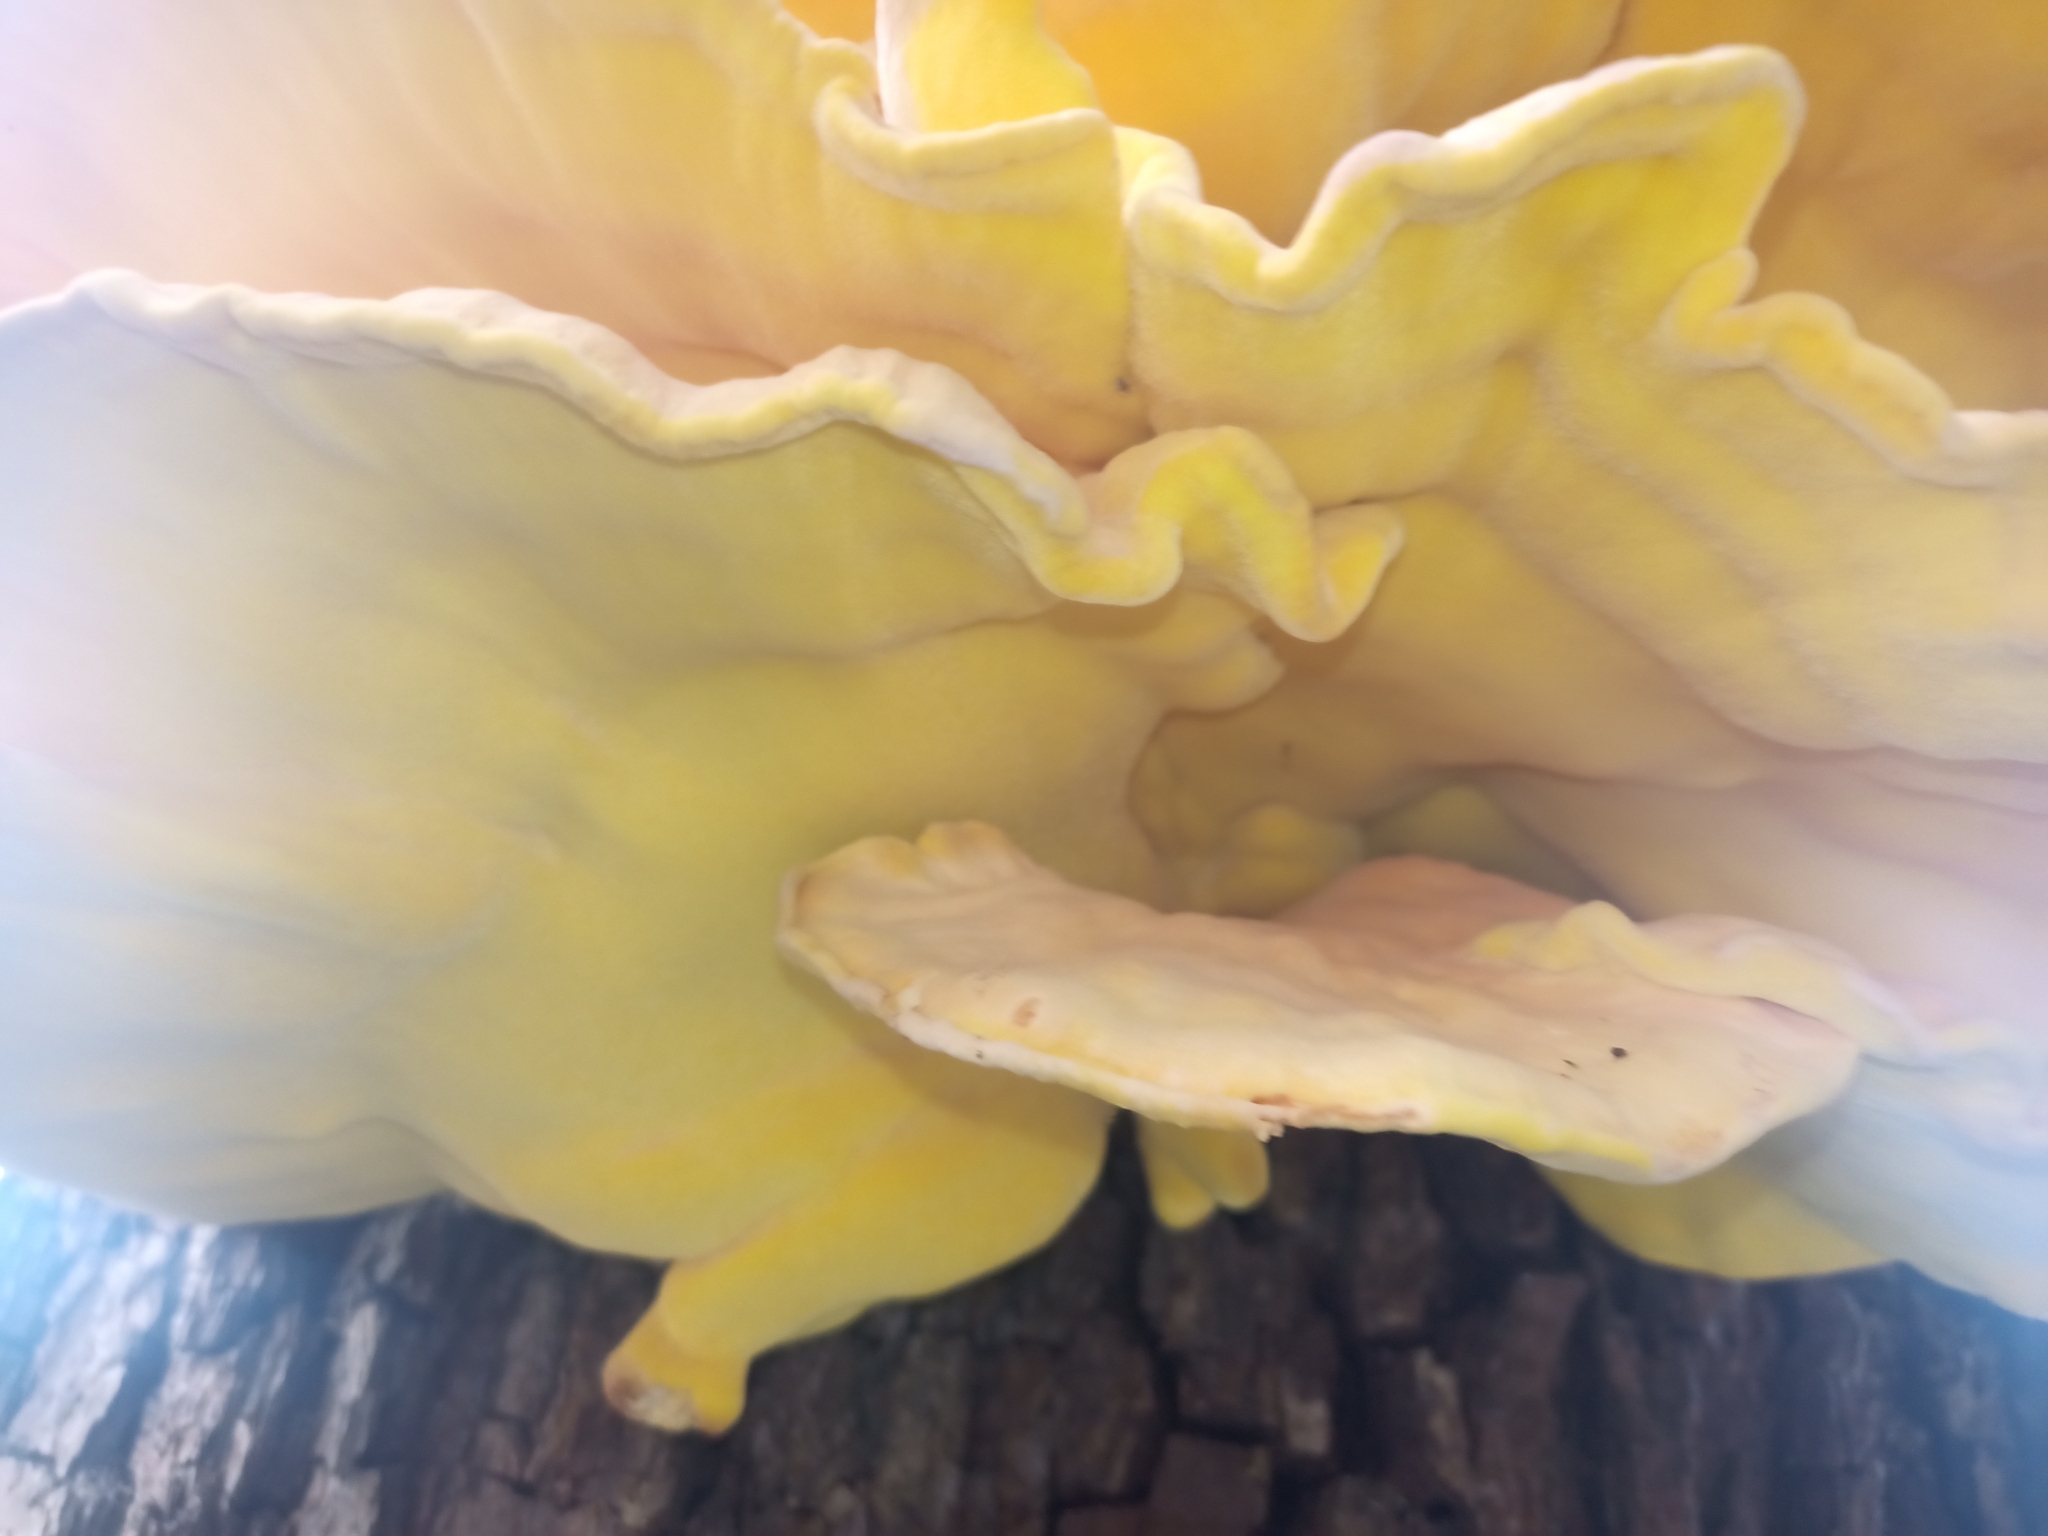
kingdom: Fungi
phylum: Basidiomycota
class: Agaricomycetes
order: Polyporales
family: Laetiporaceae
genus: Laetiporus
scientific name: Laetiporus sulphureus
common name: Chicken of the woods
